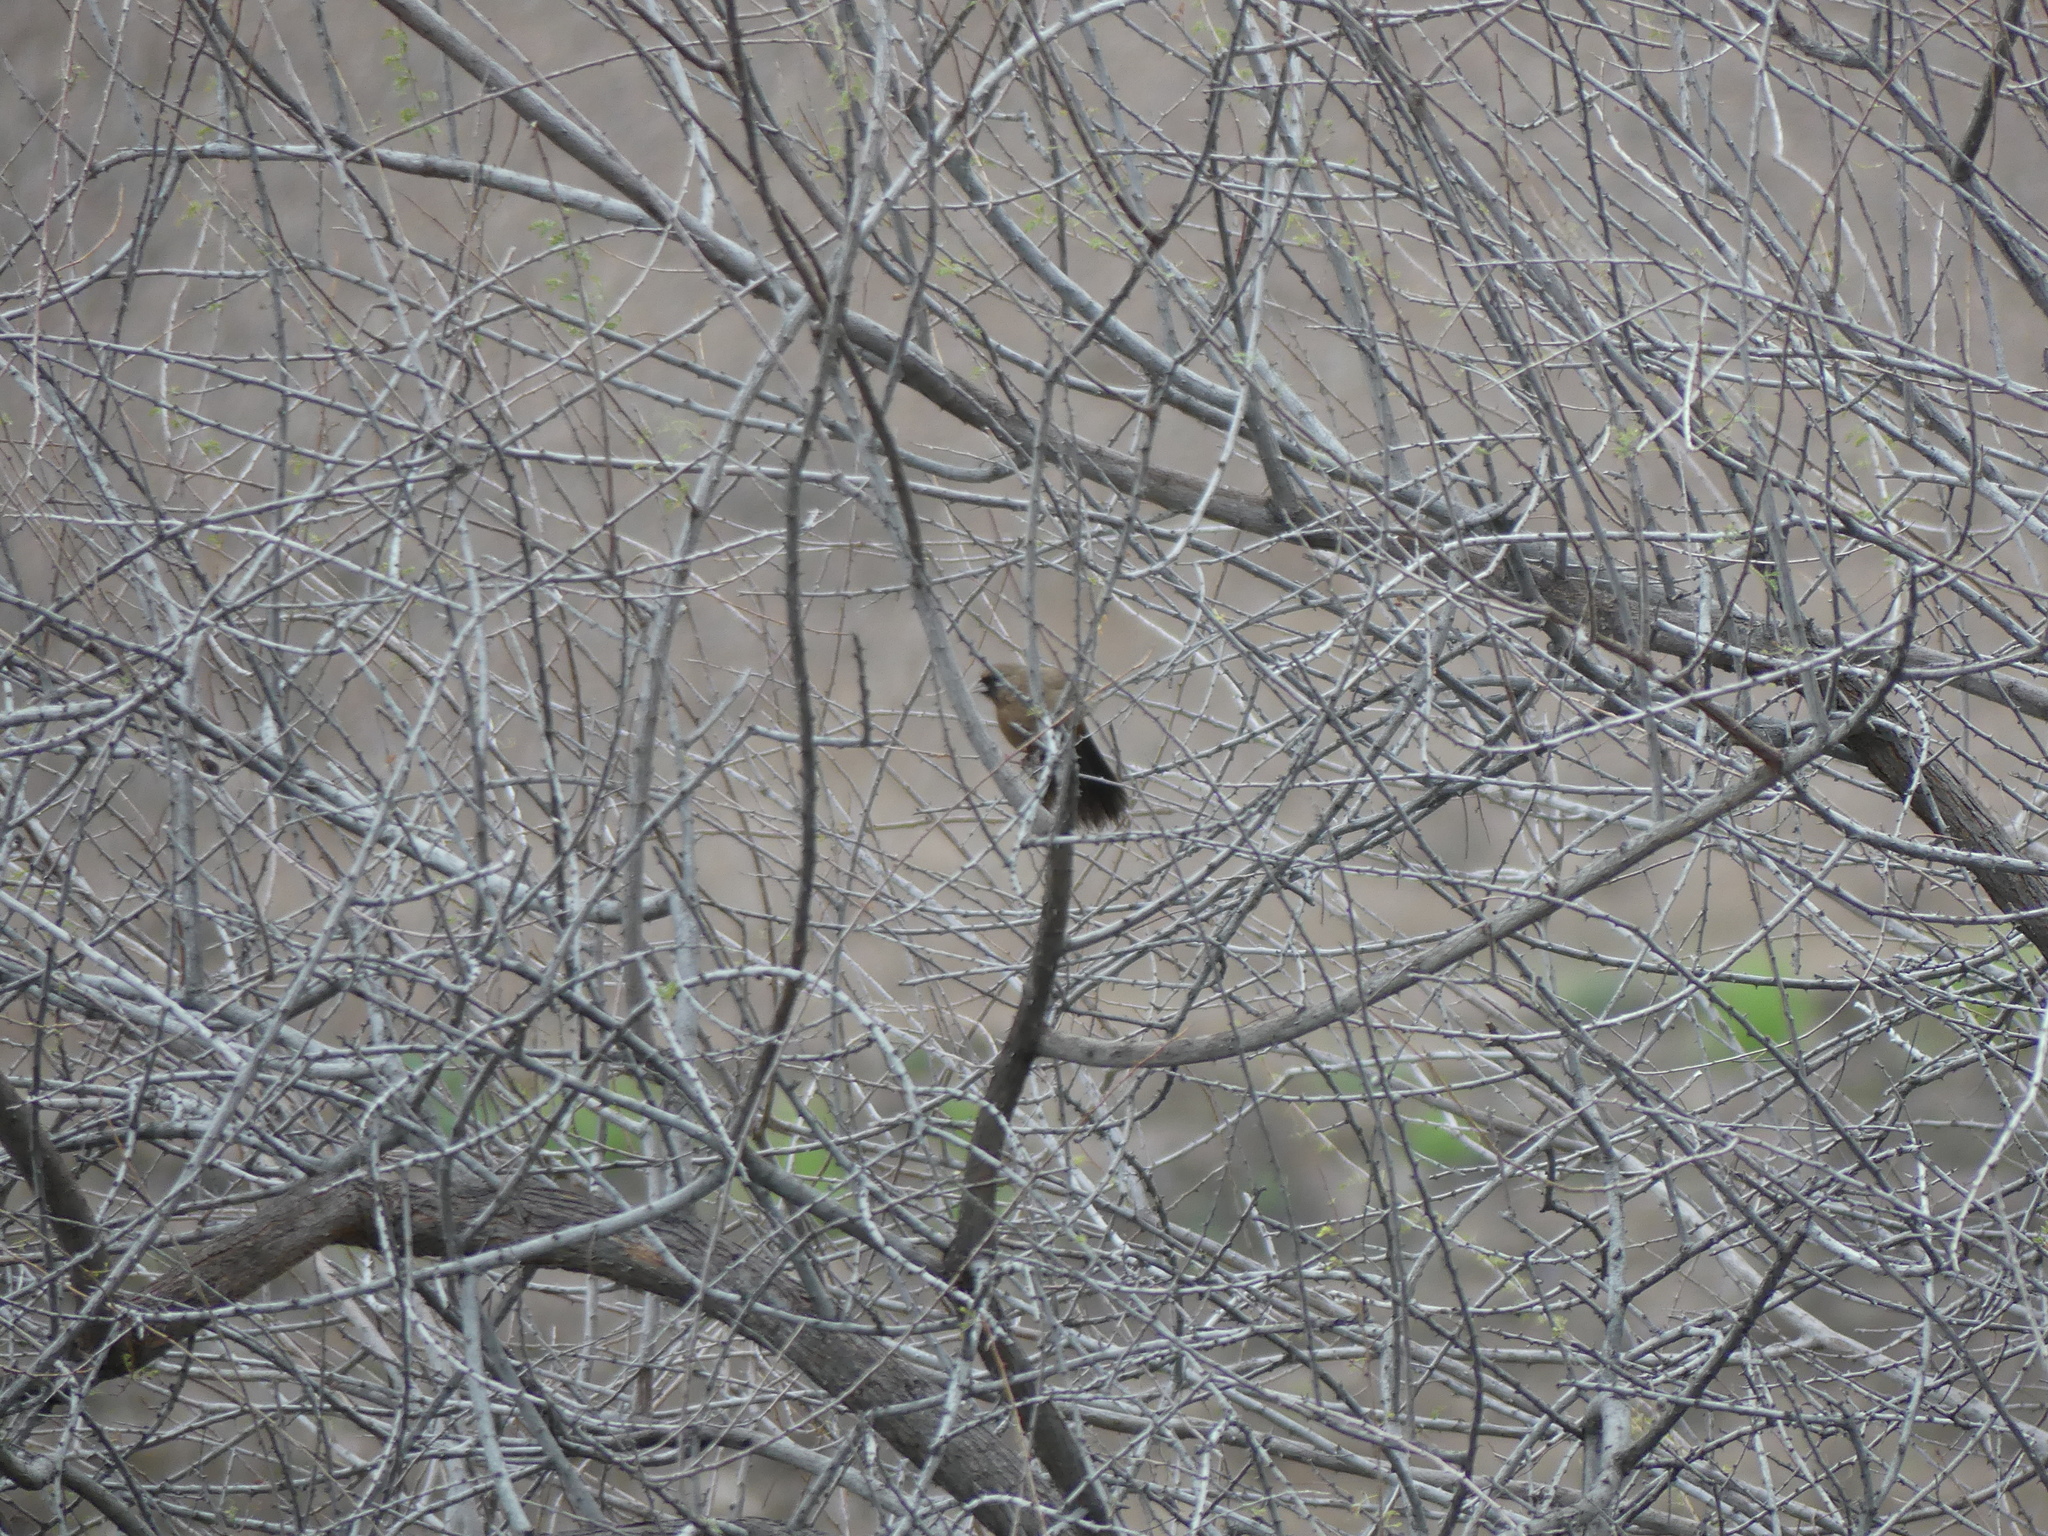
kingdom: Animalia
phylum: Chordata
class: Aves
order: Passeriformes
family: Passerellidae
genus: Melozone
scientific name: Melozone aberti
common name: Abert's towhee
